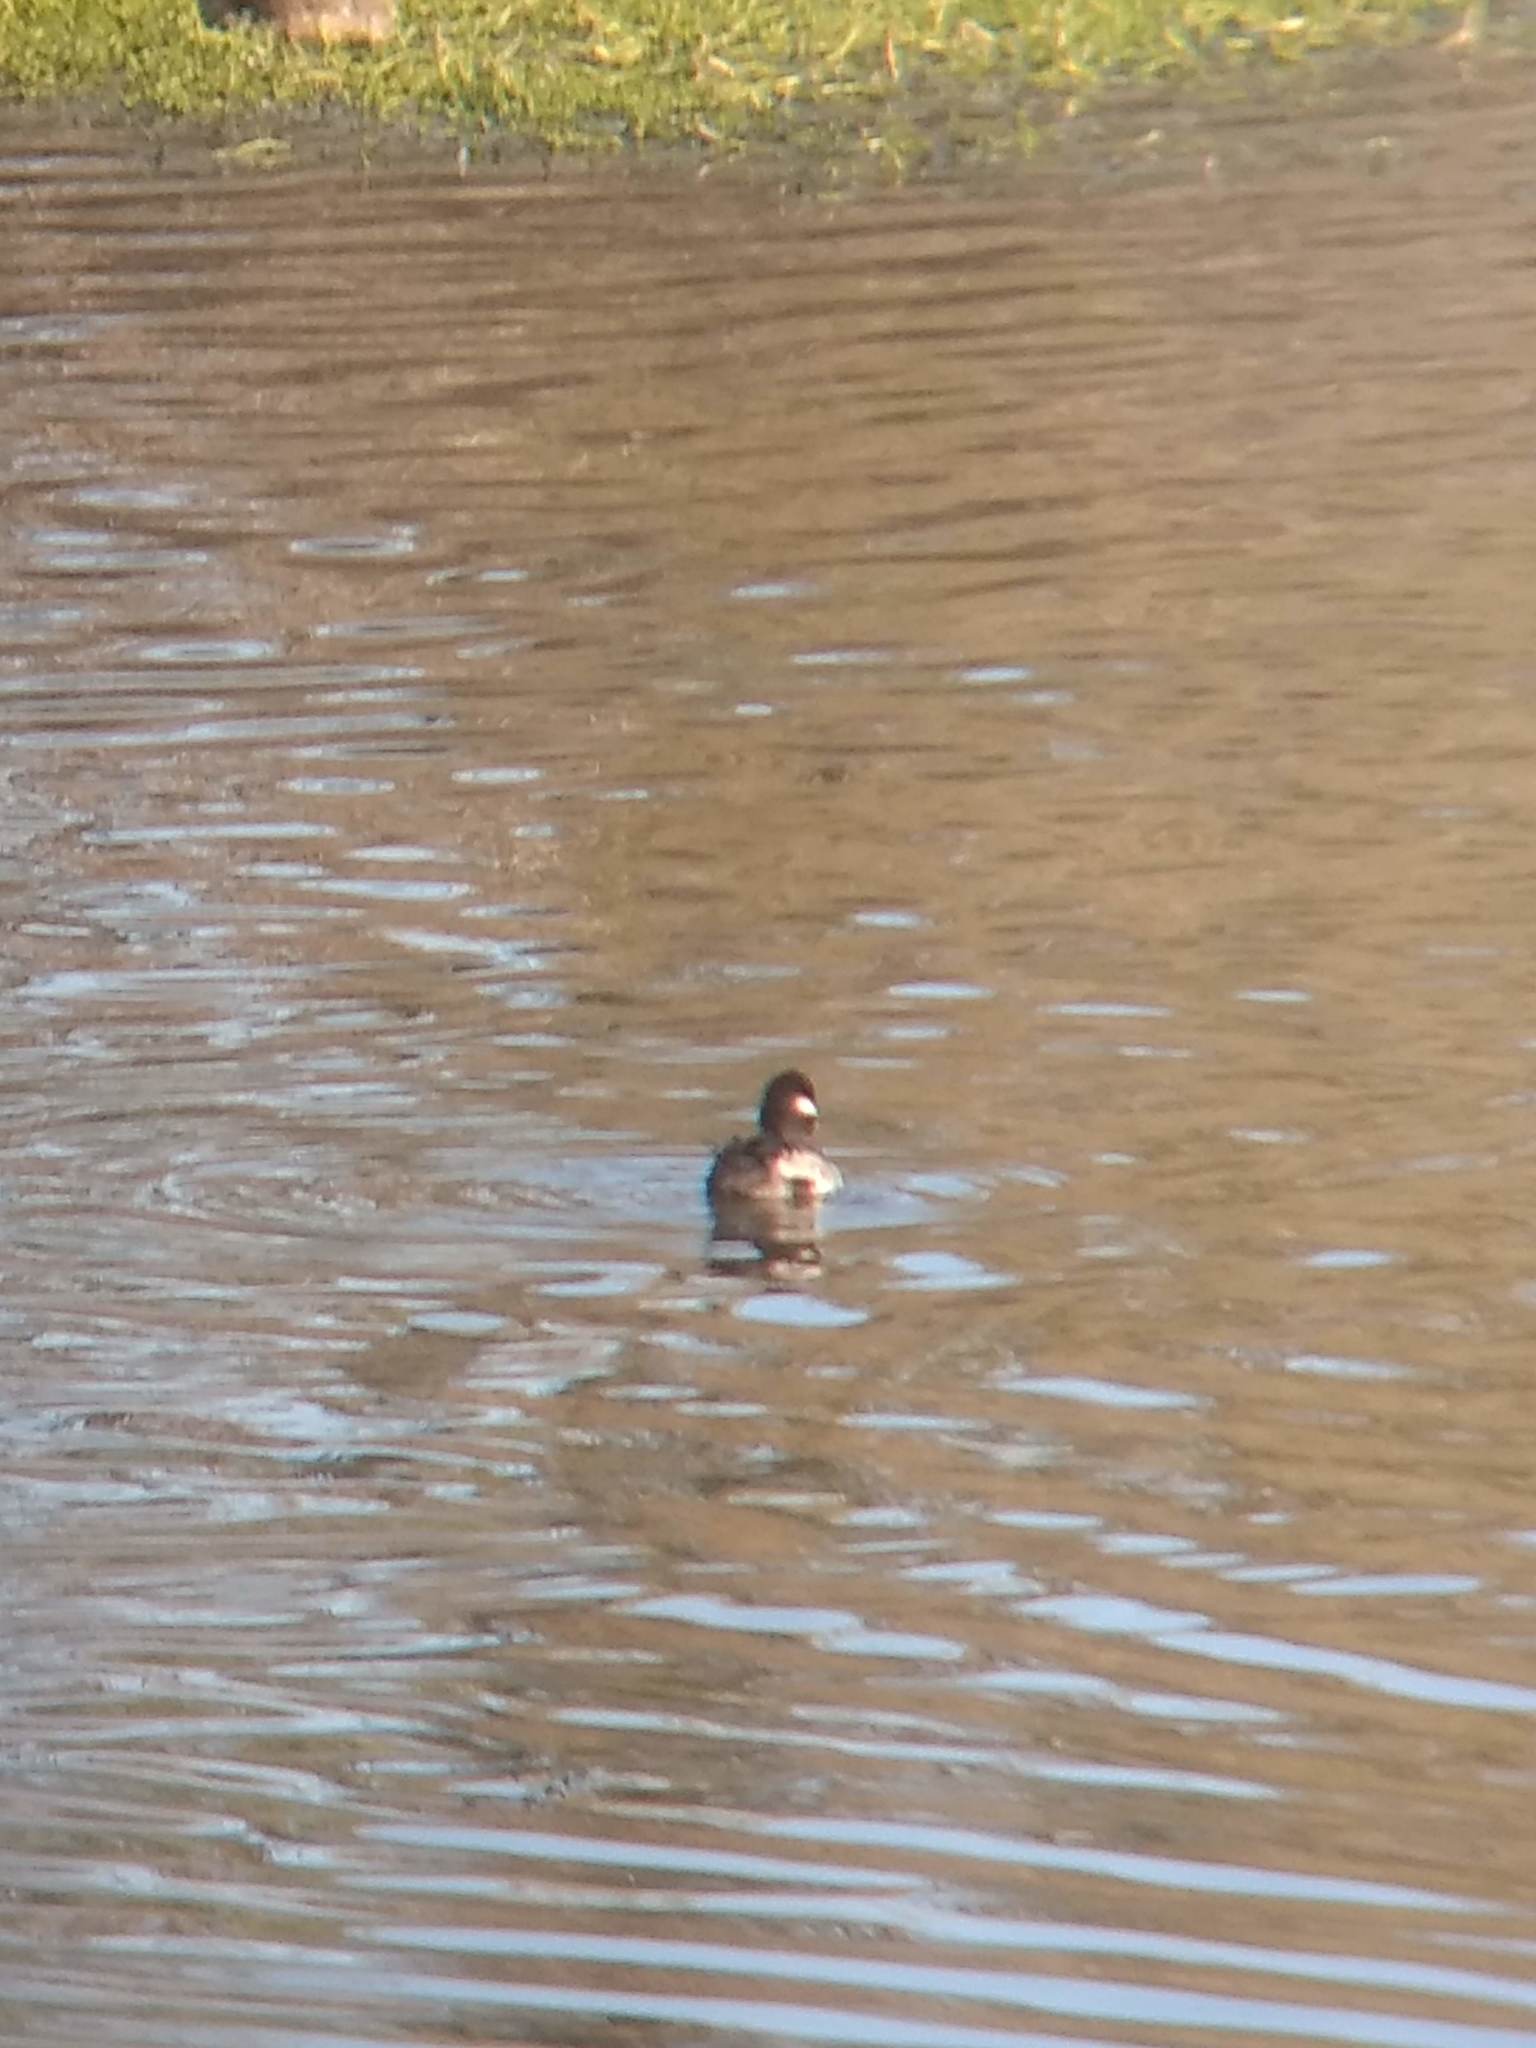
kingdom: Animalia
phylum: Chordata
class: Aves
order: Anseriformes
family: Anatidae
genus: Bucephala
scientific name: Bucephala albeola
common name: Bufflehead
